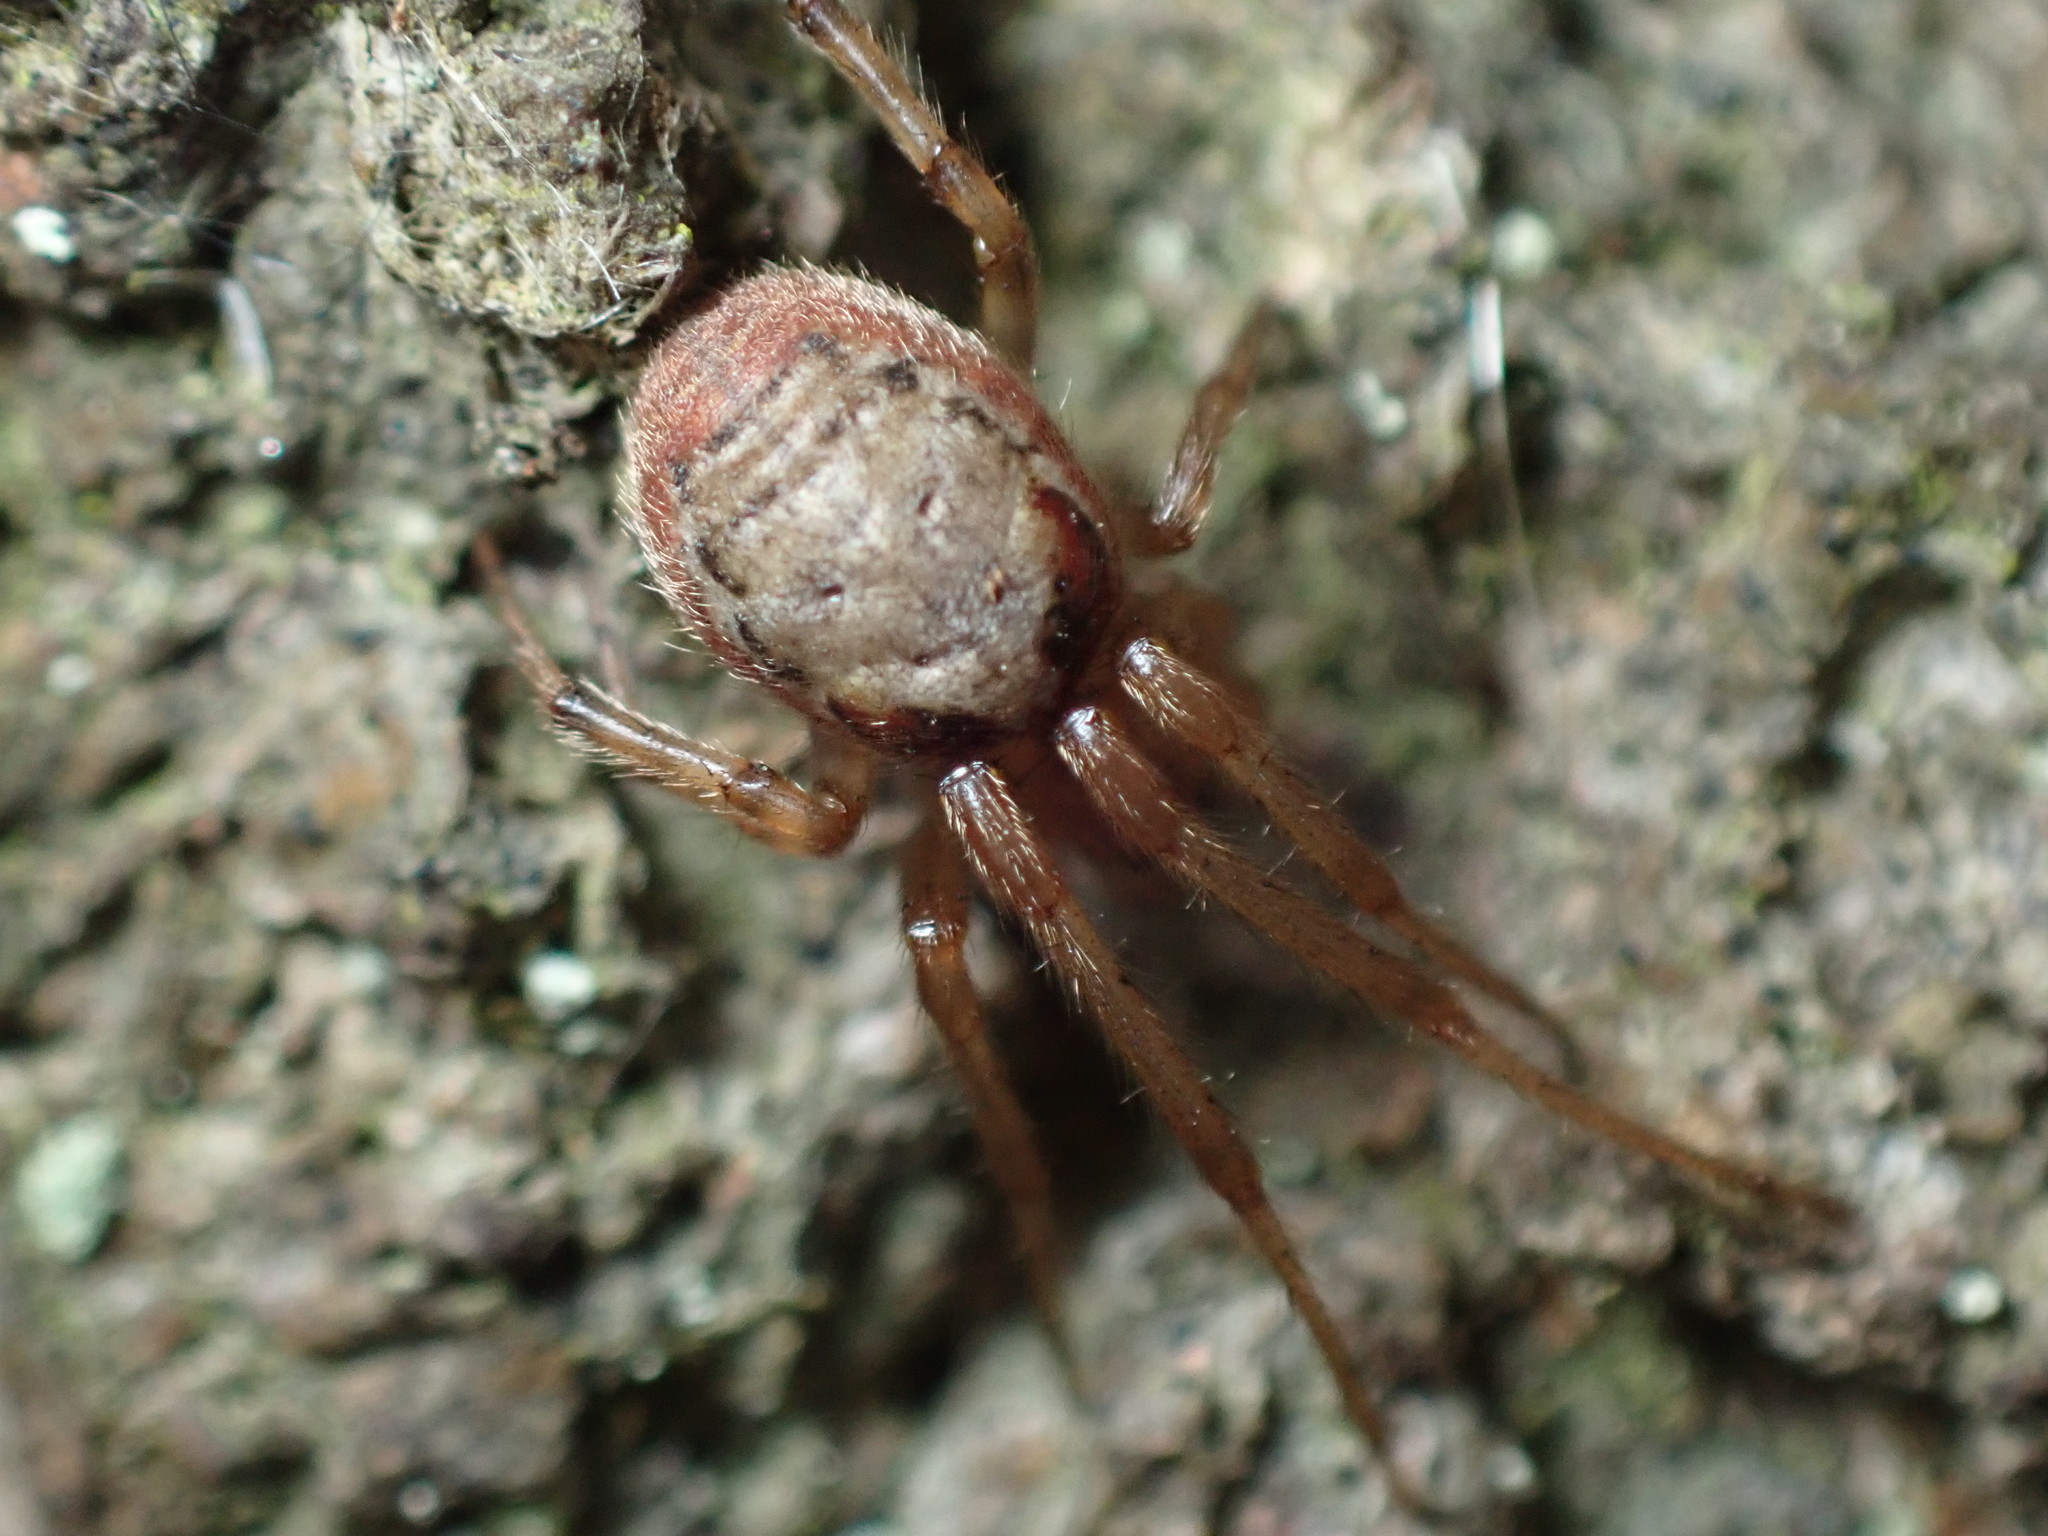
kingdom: Animalia
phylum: Arthropoda
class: Arachnida
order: Araneae
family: Araneidae
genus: Zygiella
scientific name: Zygiella atrica
